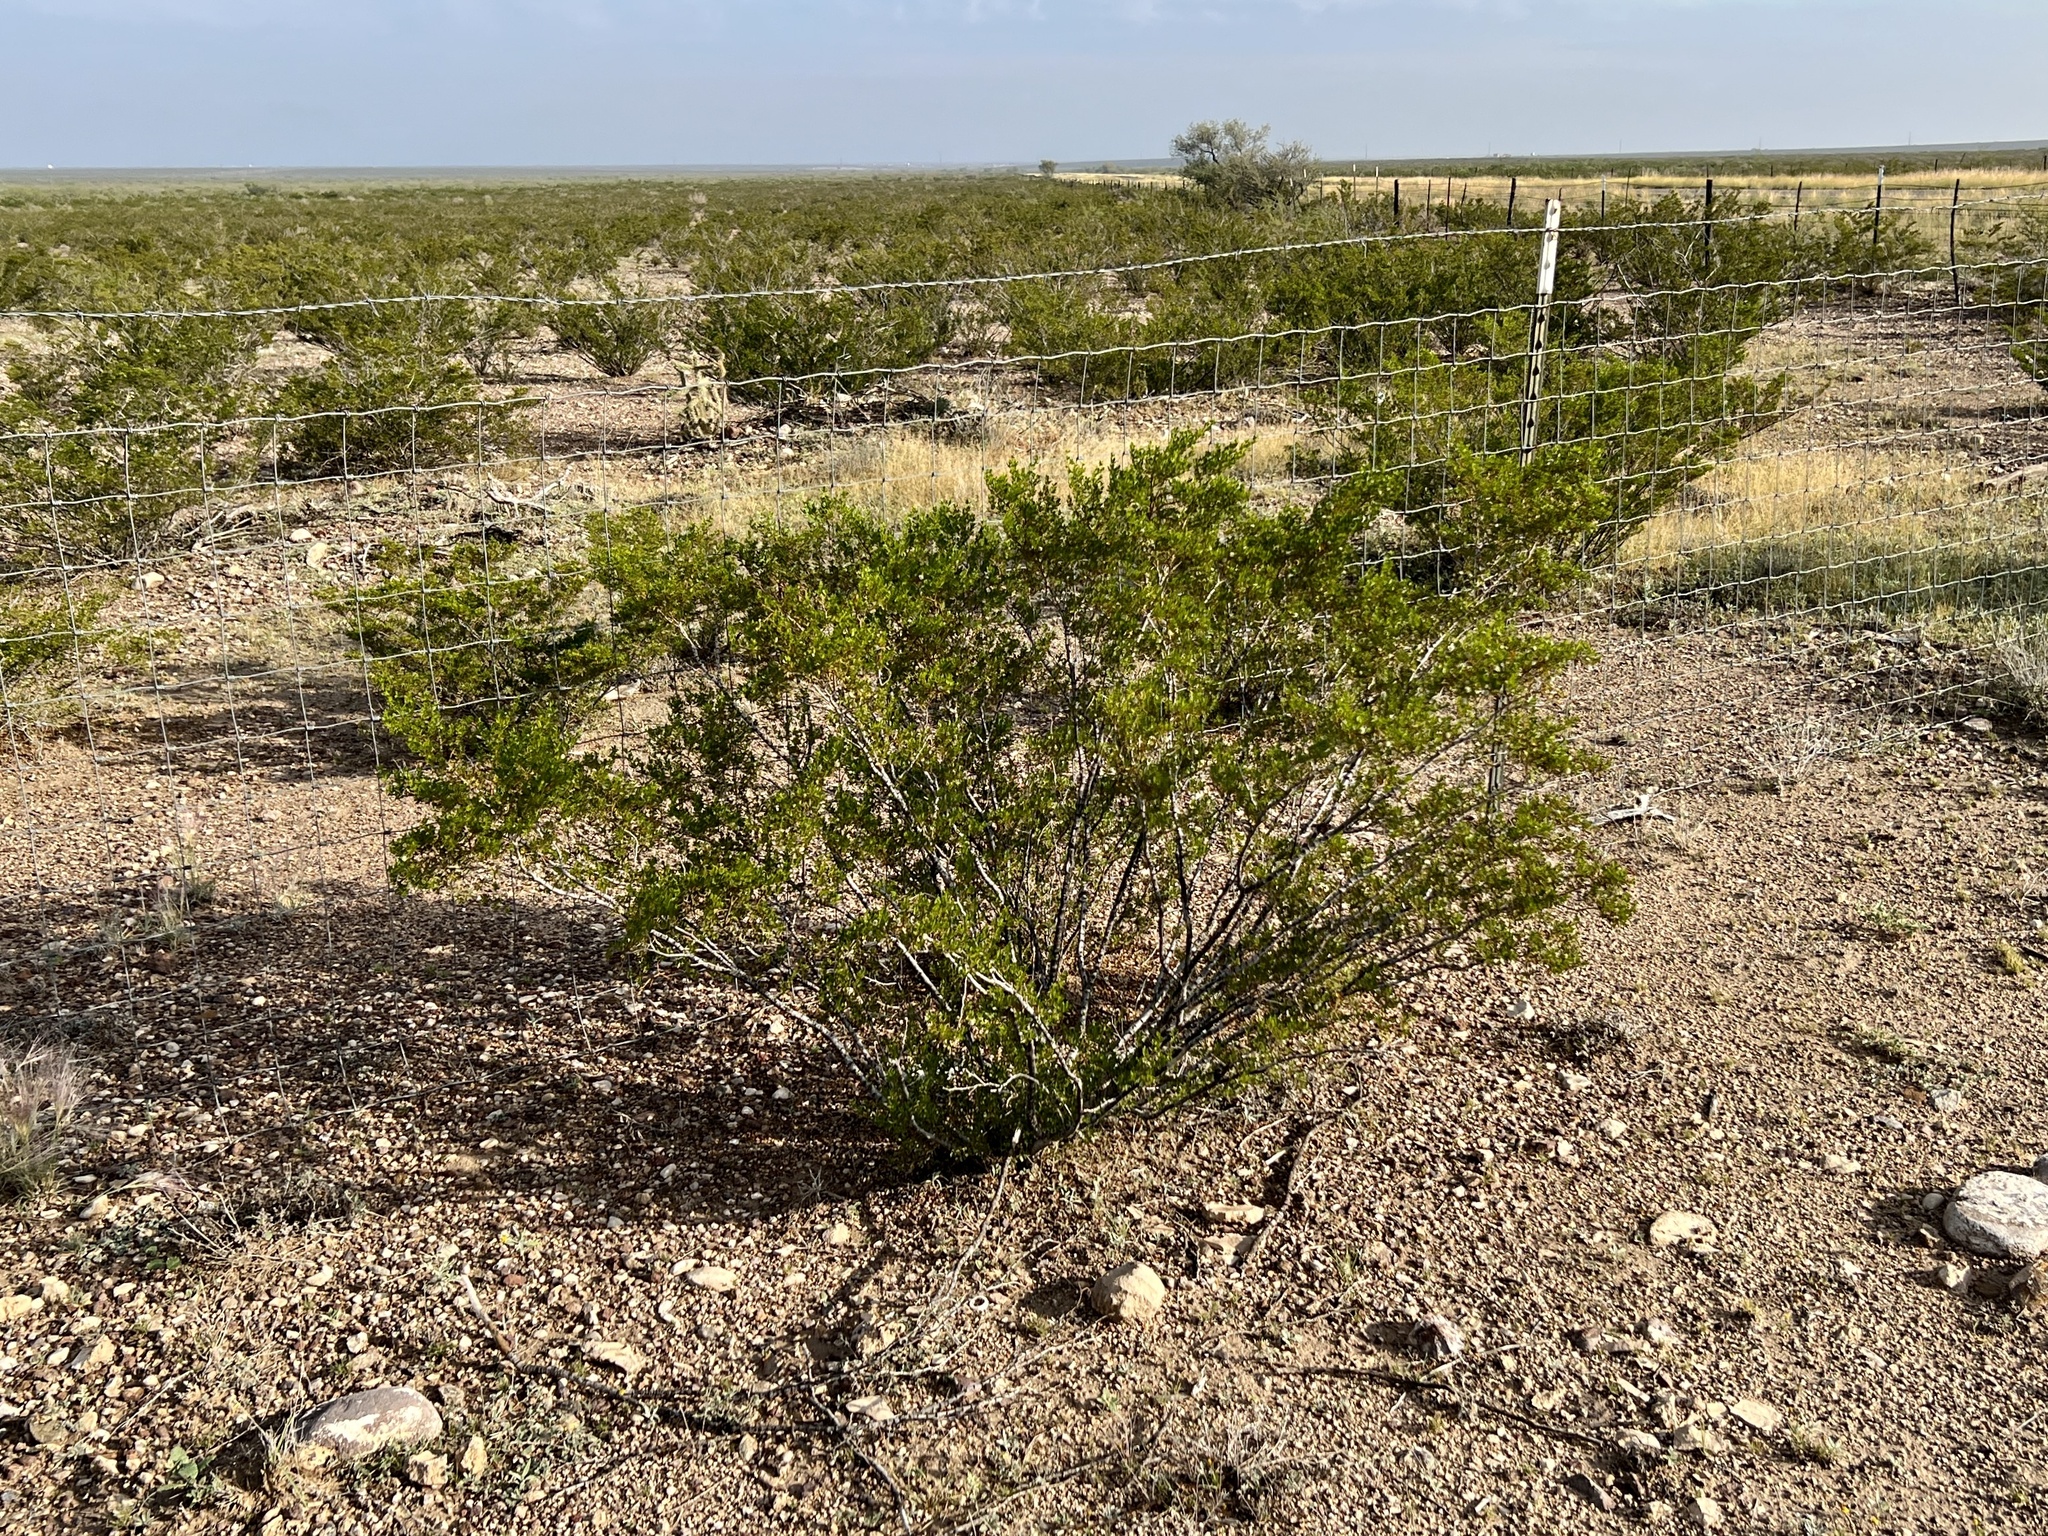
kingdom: Plantae
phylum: Tracheophyta
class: Magnoliopsida
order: Zygophyllales
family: Zygophyllaceae
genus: Larrea
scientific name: Larrea tridentata
